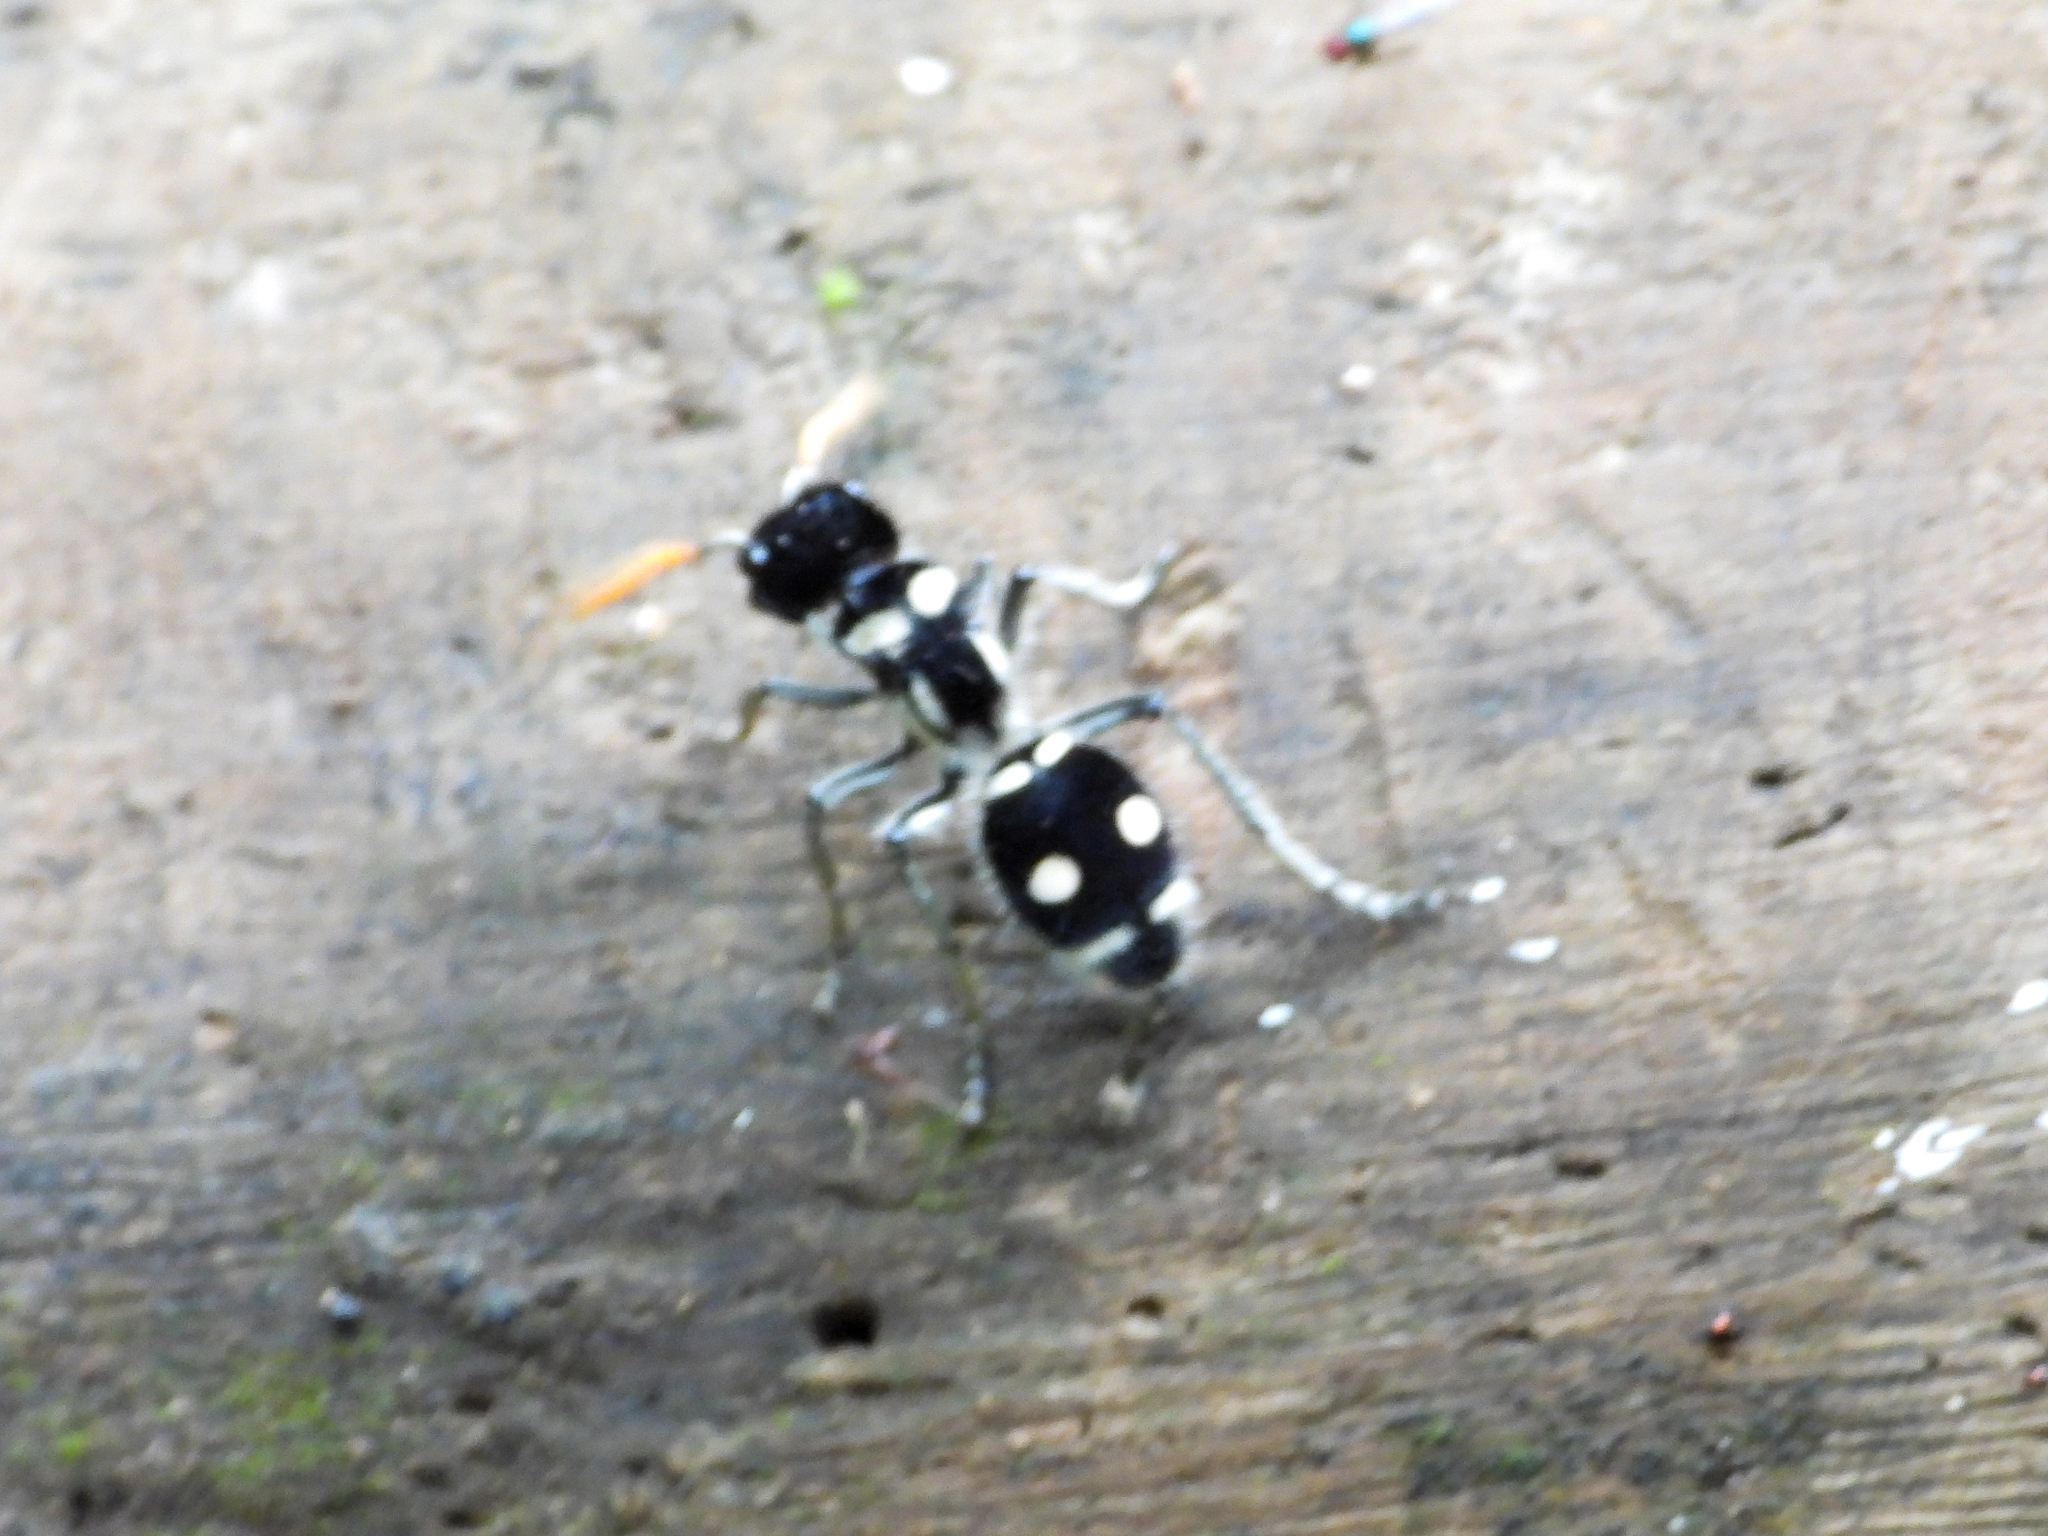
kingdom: Animalia
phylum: Arthropoda
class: Insecta
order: Hymenoptera
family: Mutillidae
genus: Hoplomutilla
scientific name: Hoplomutilla
